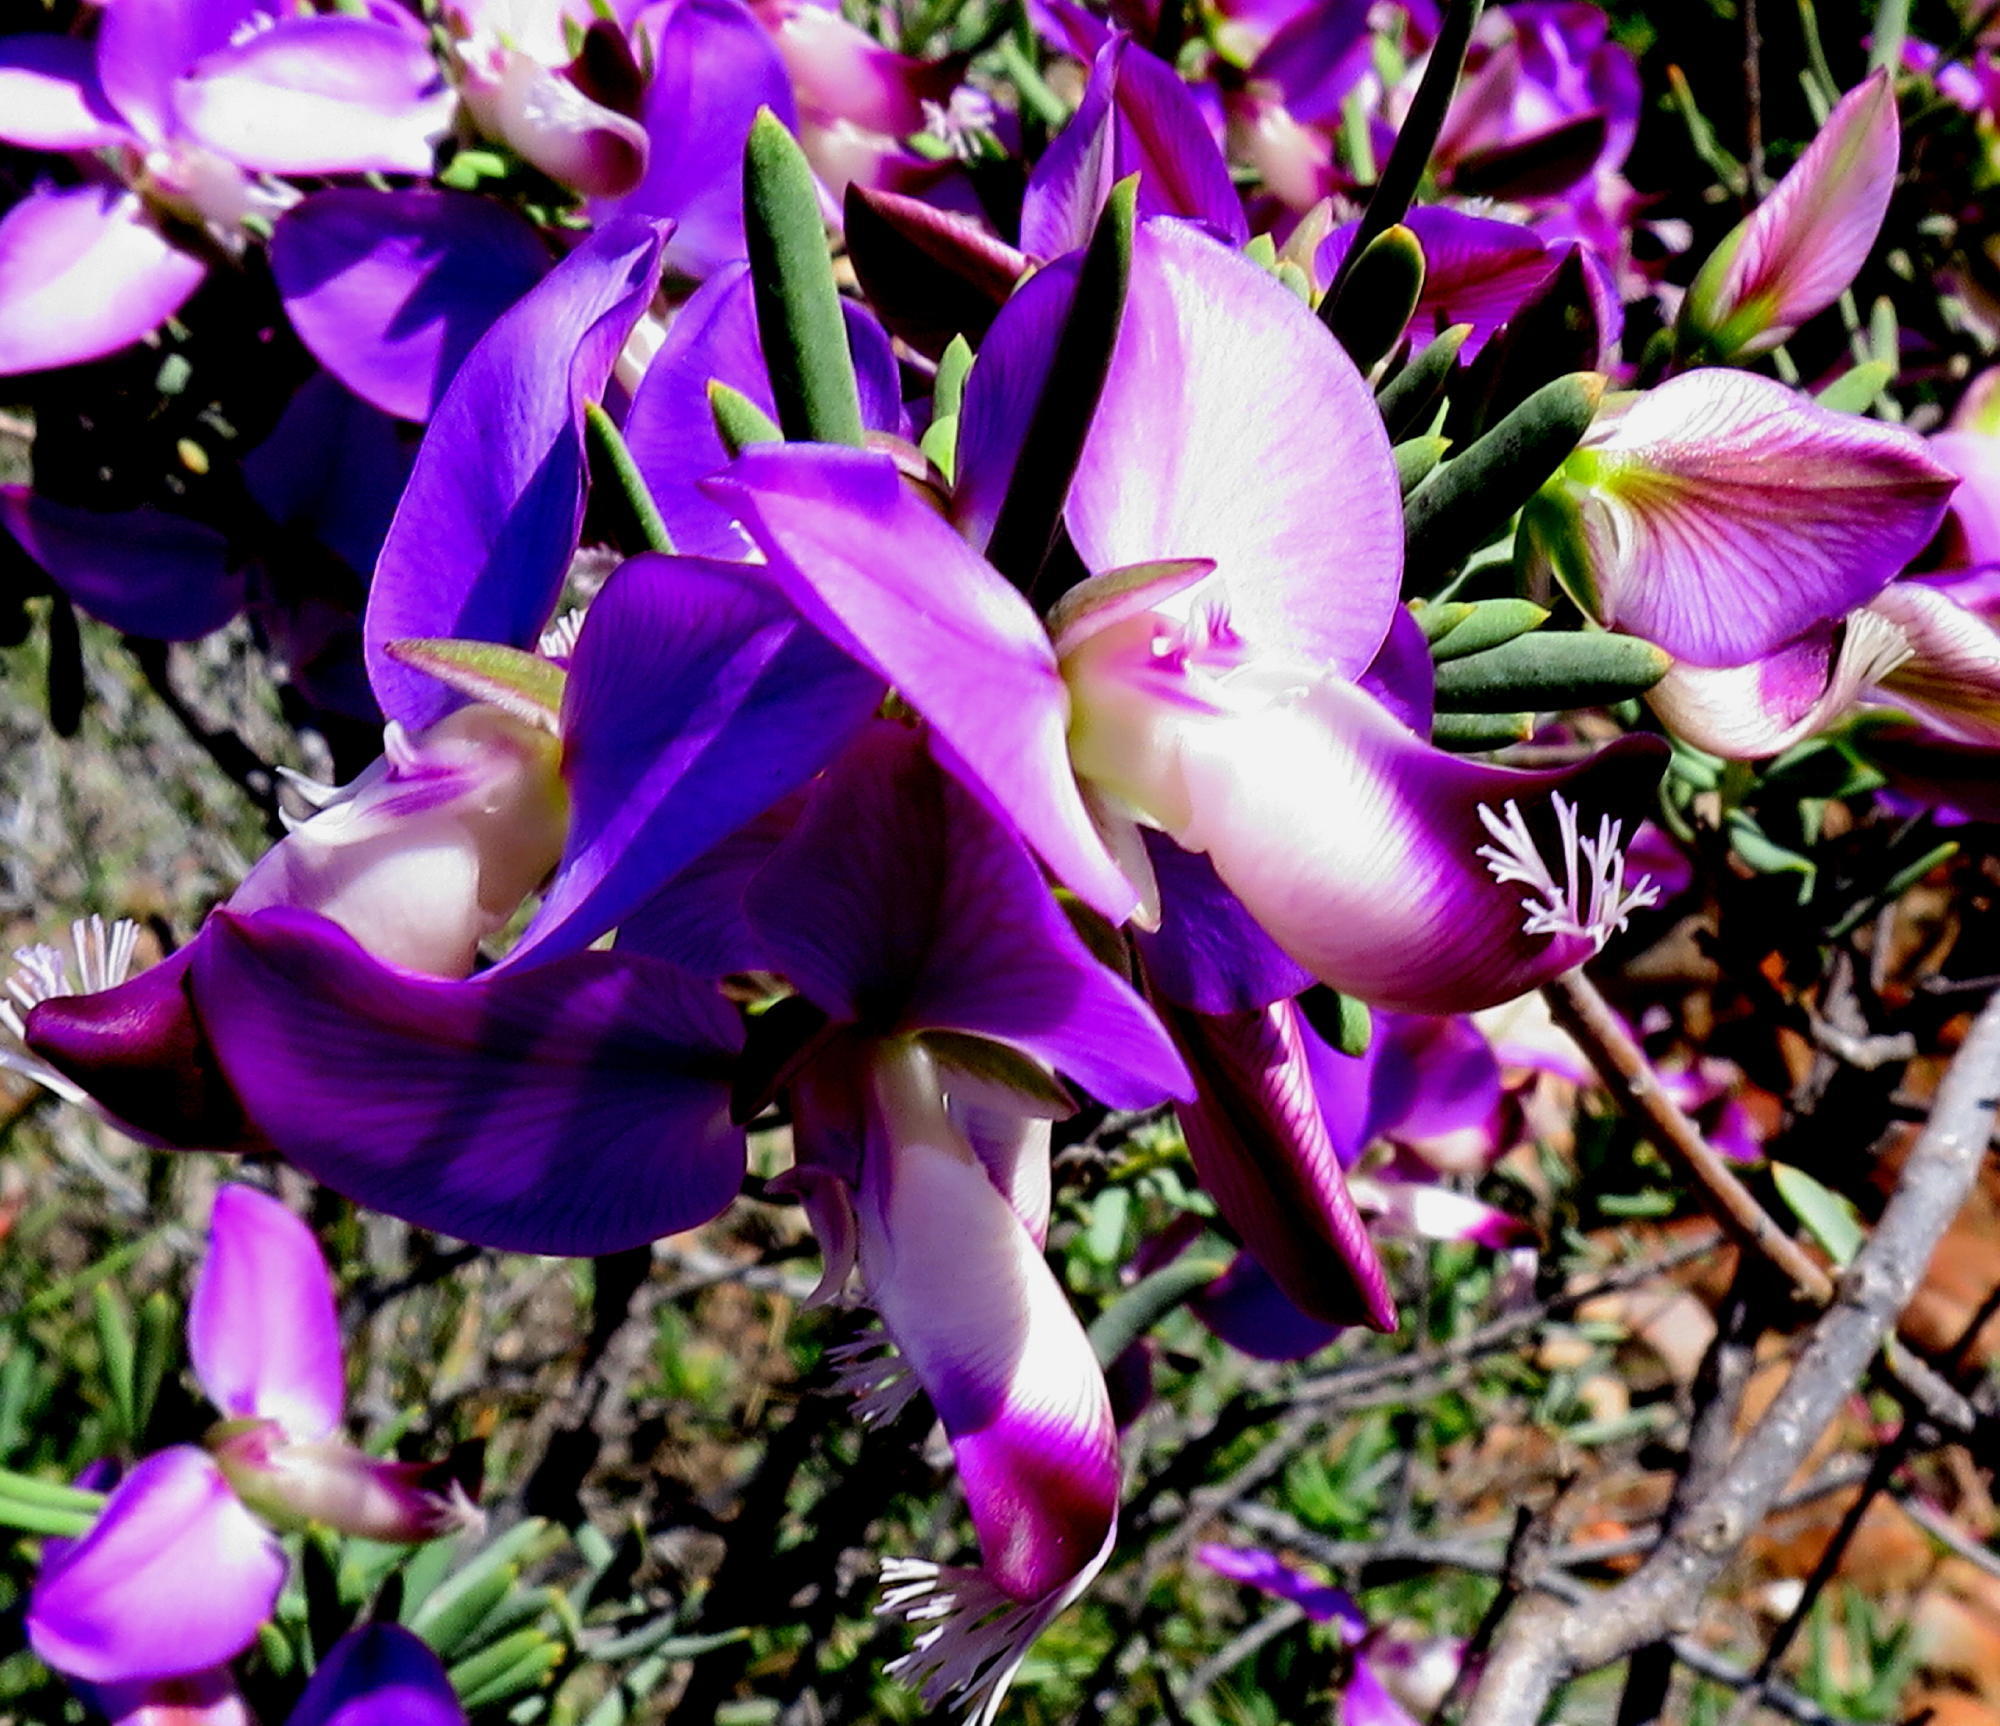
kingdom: Plantae
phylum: Tracheophyta
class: Magnoliopsida
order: Fabales
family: Polygalaceae
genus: Polygala
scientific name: Polygala myrtifolia
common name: Myrtle-leaf milkwort
